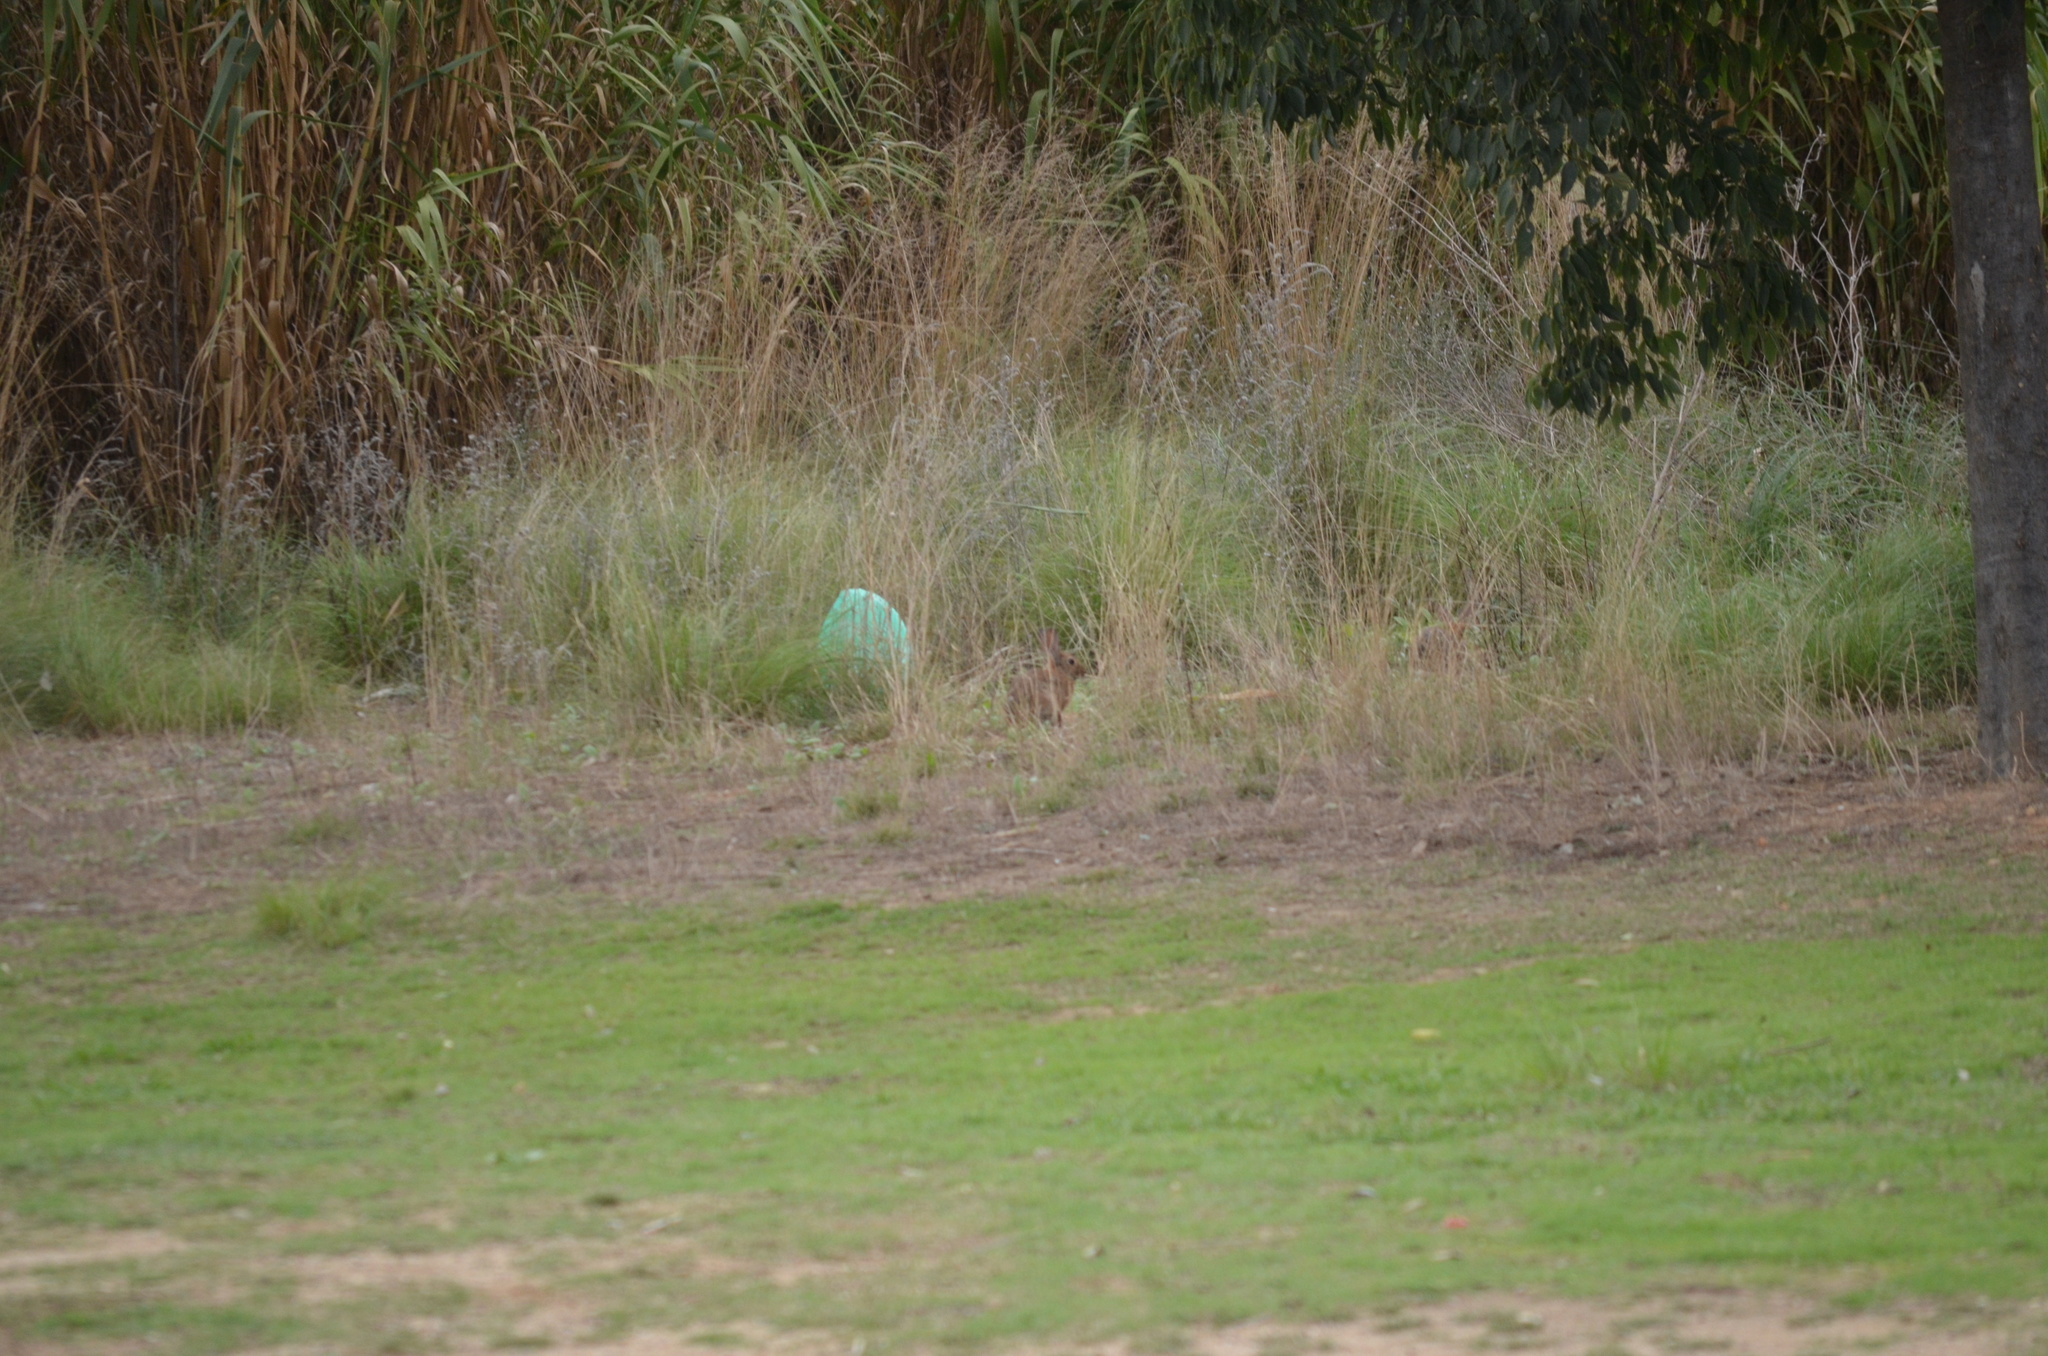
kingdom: Animalia
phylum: Chordata
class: Mammalia
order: Lagomorpha
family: Leporidae
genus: Oryctolagus
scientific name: Oryctolagus cuniculus
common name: European rabbit
